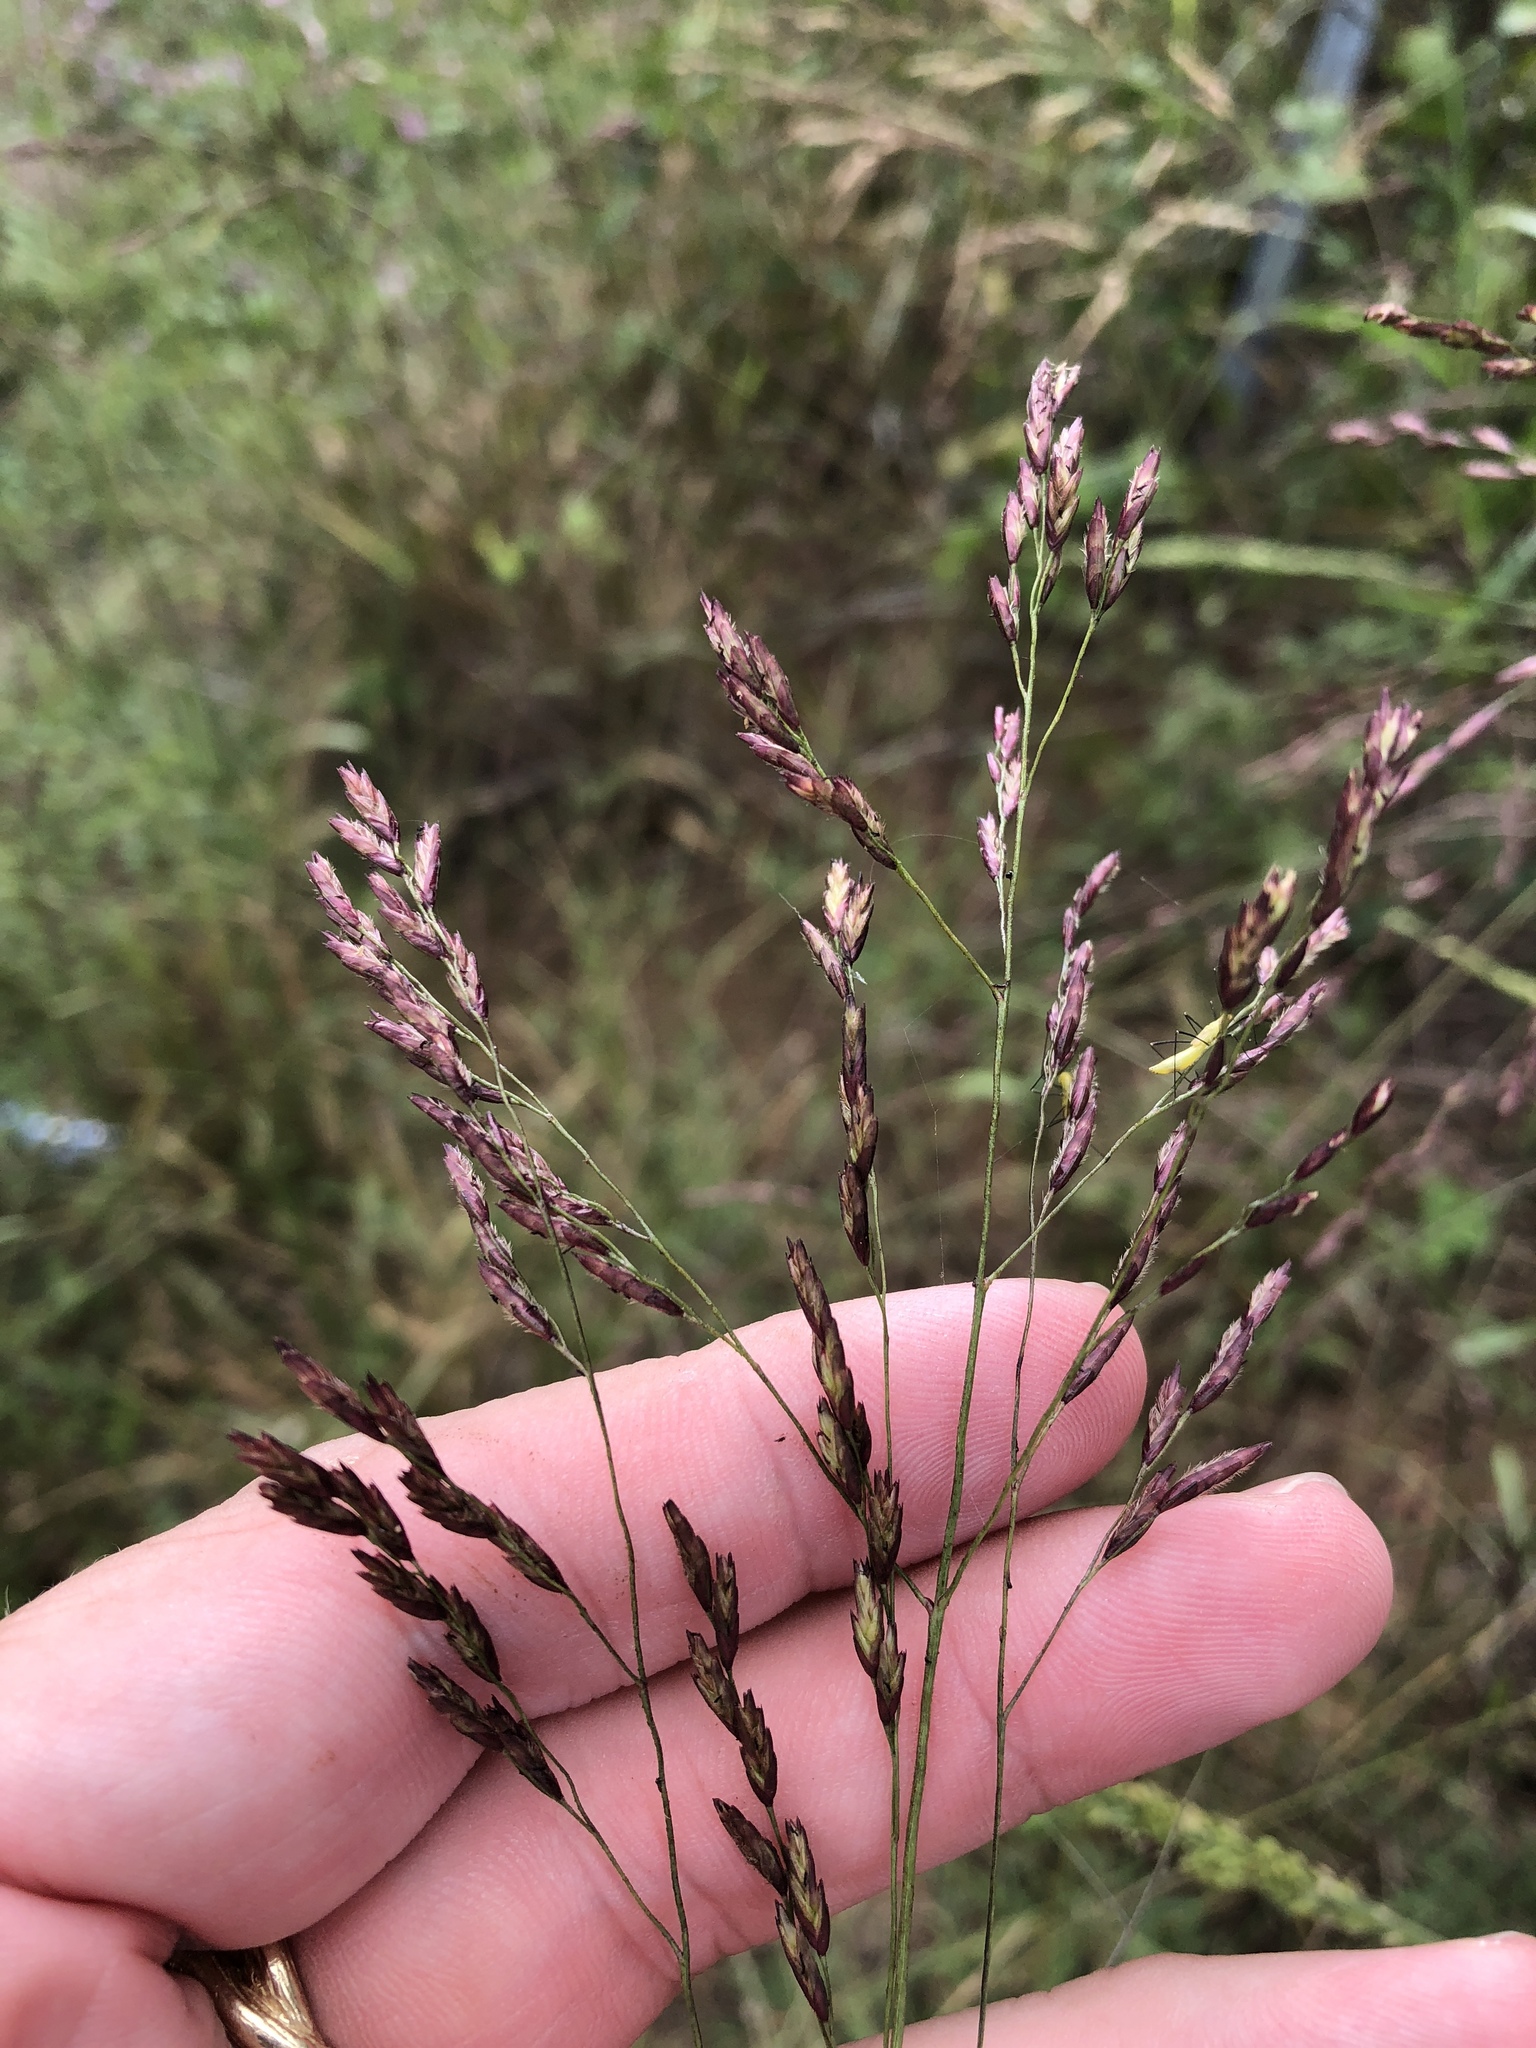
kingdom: Plantae
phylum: Tracheophyta
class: Liliopsida
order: Poales
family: Poaceae
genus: Tridens
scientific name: Tridens flavus
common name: Purpletop
